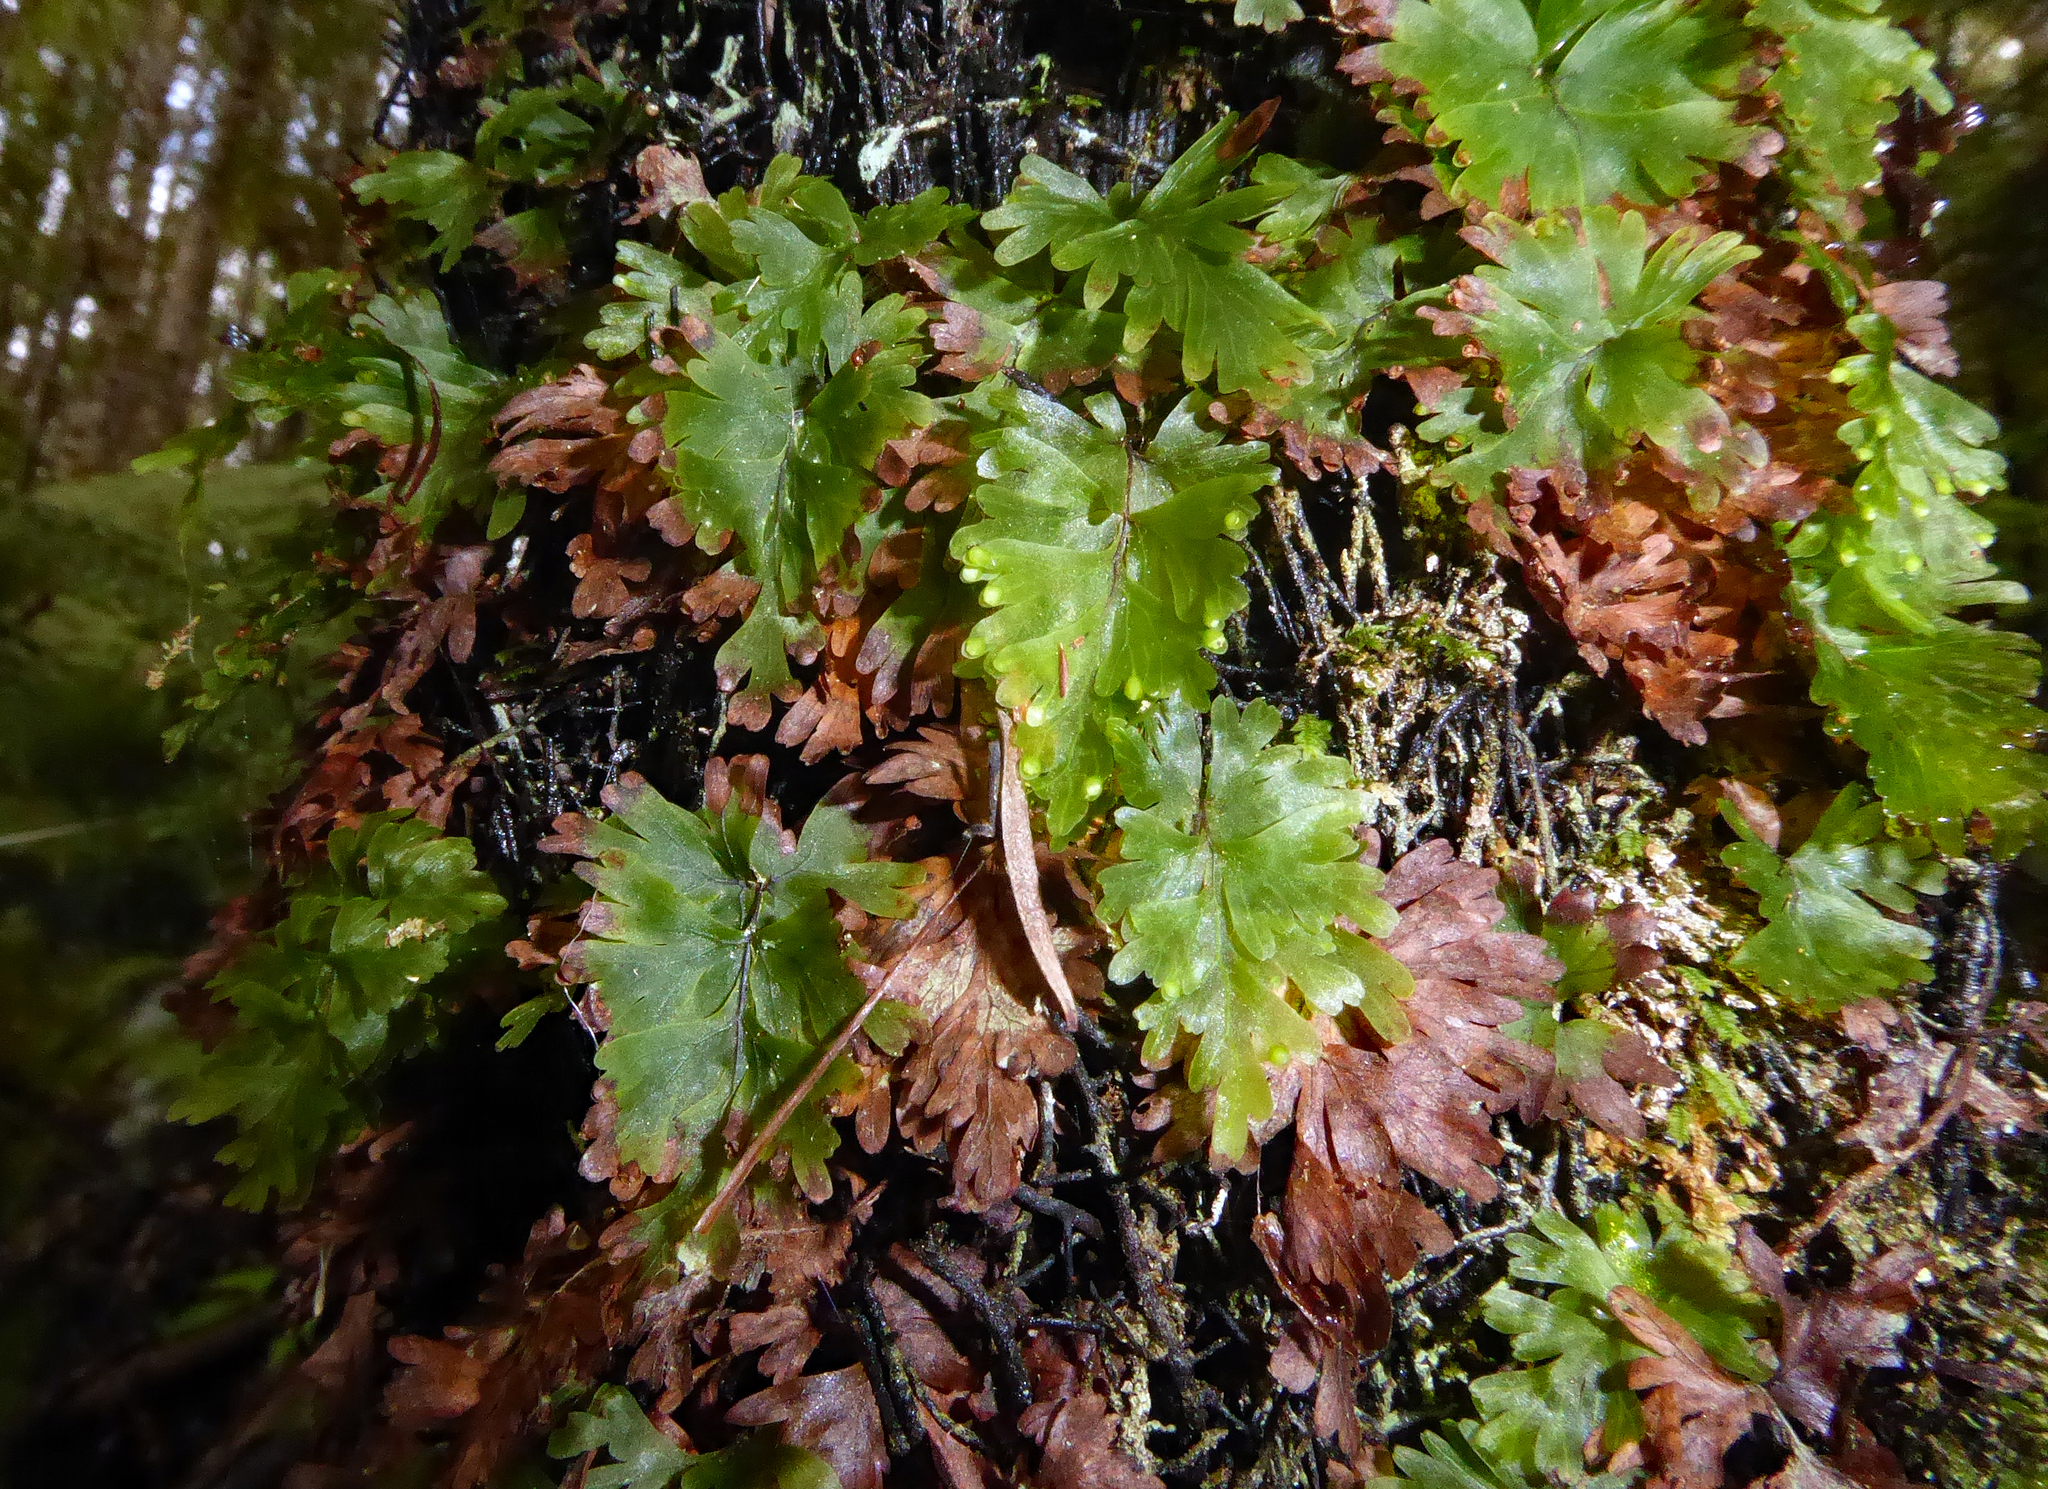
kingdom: Plantae
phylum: Tracheophyta
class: Polypodiopsida
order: Hymenophyllales
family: Hymenophyllaceae
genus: Hymenophyllum
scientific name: Hymenophyllum flabellatum
